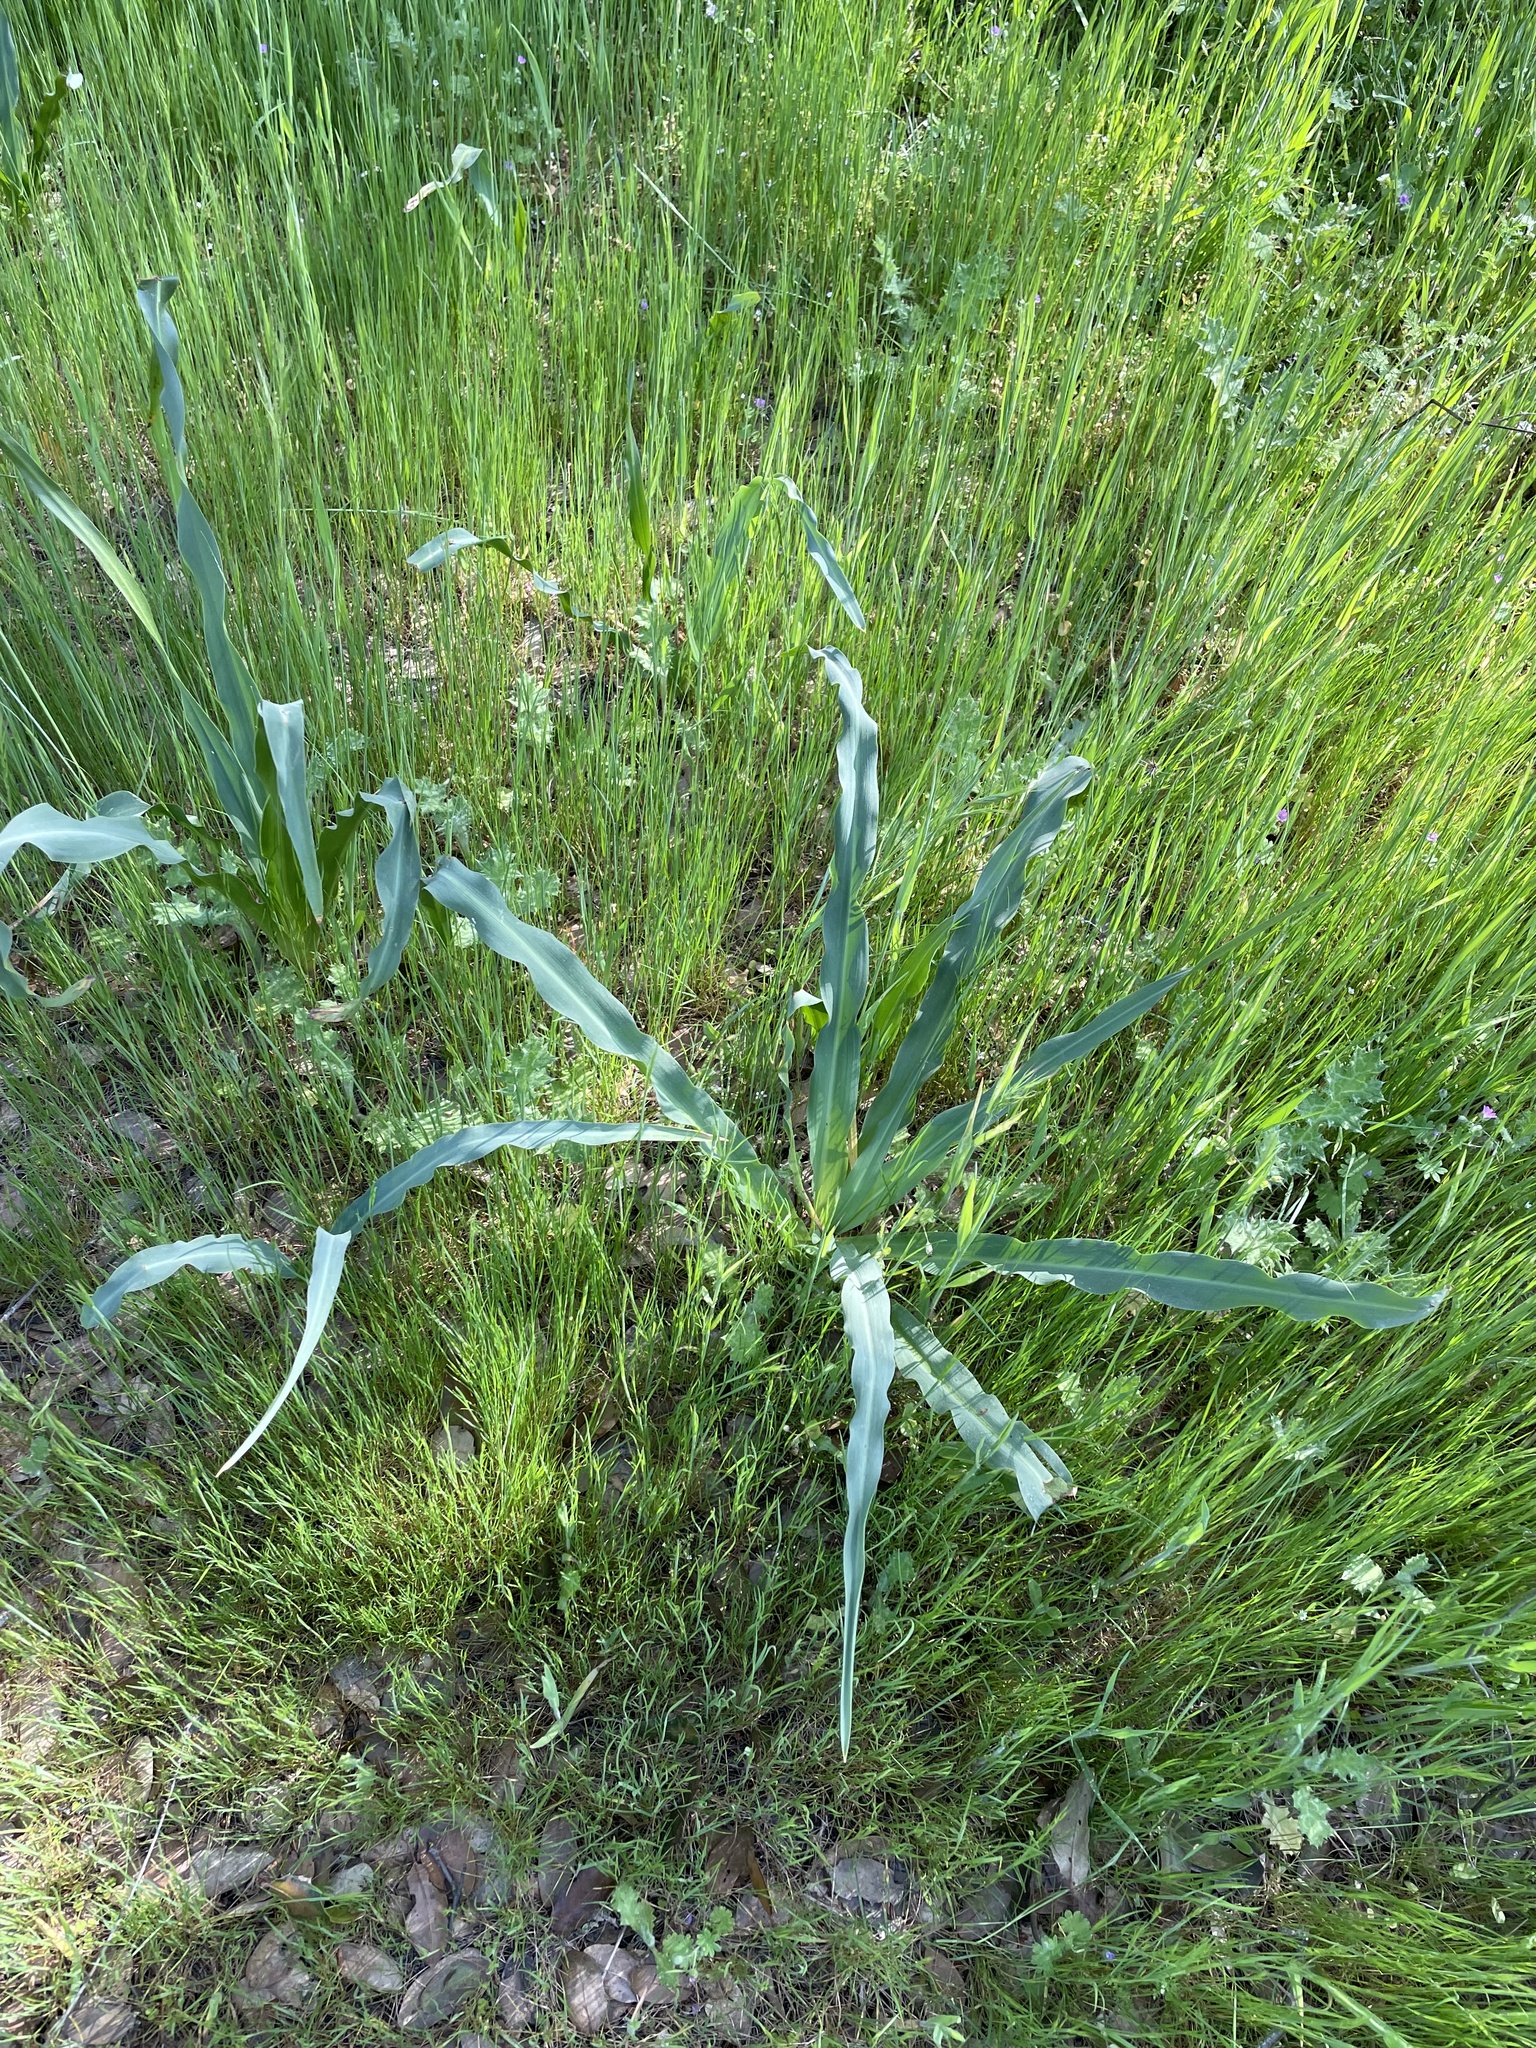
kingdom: Plantae
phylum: Tracheophyta
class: Liliopsida
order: Asparagales
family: Asparagaceae
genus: Chlorogalum
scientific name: Chlorogalum pomeridianum
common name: Amole
